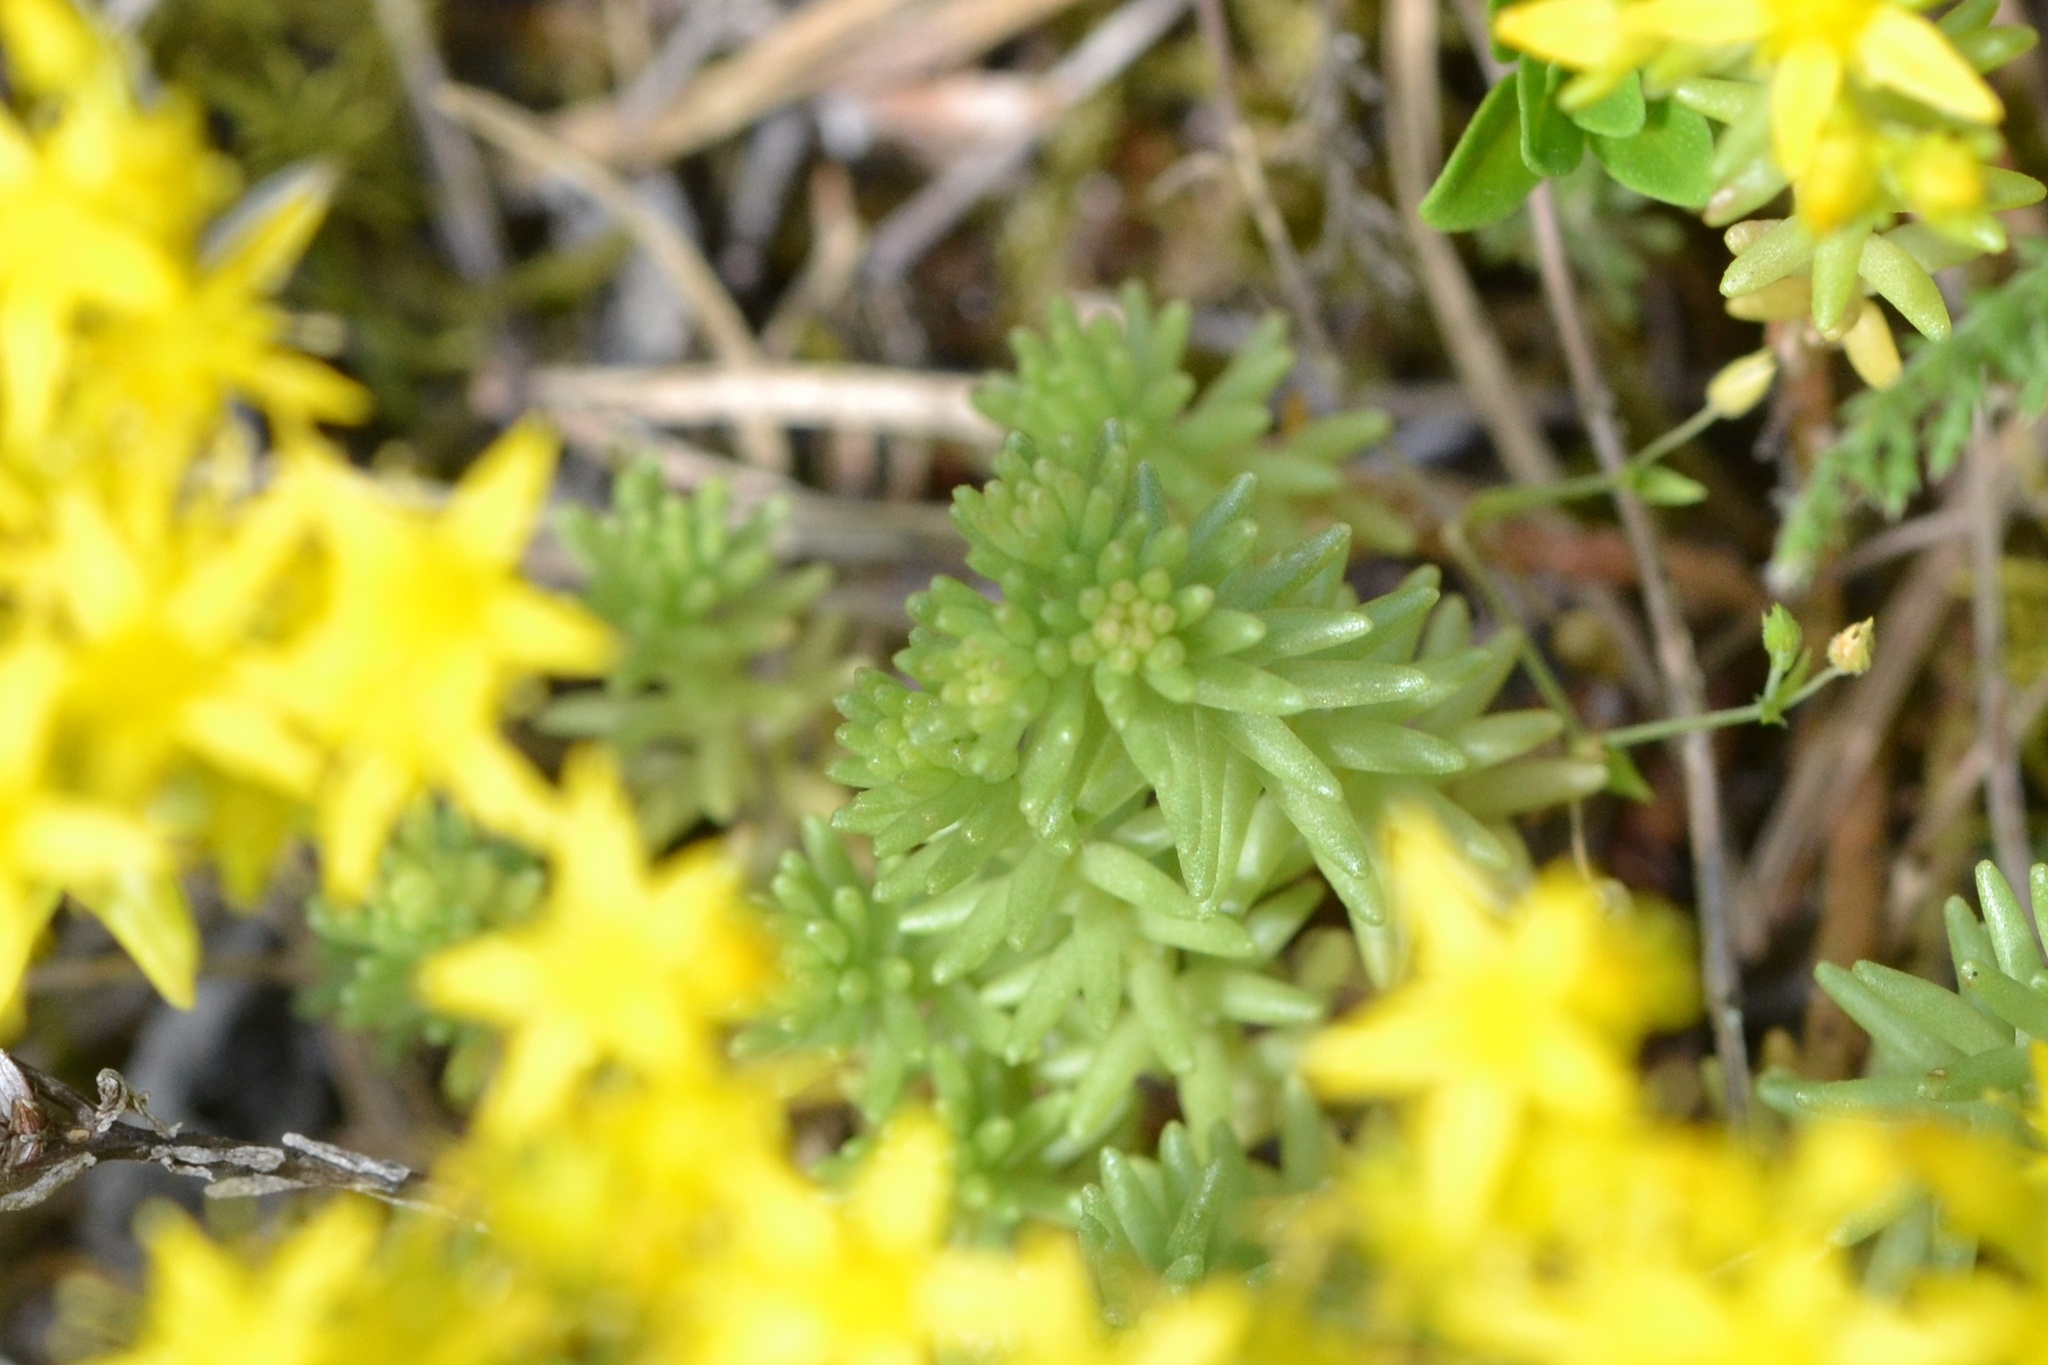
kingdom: Plantae
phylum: Tracheophyta
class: Magnoliopsida
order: Saxifragales
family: Crassulaceae
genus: Sedum
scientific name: Sedum sexangulare
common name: Tasteless stonecrop
